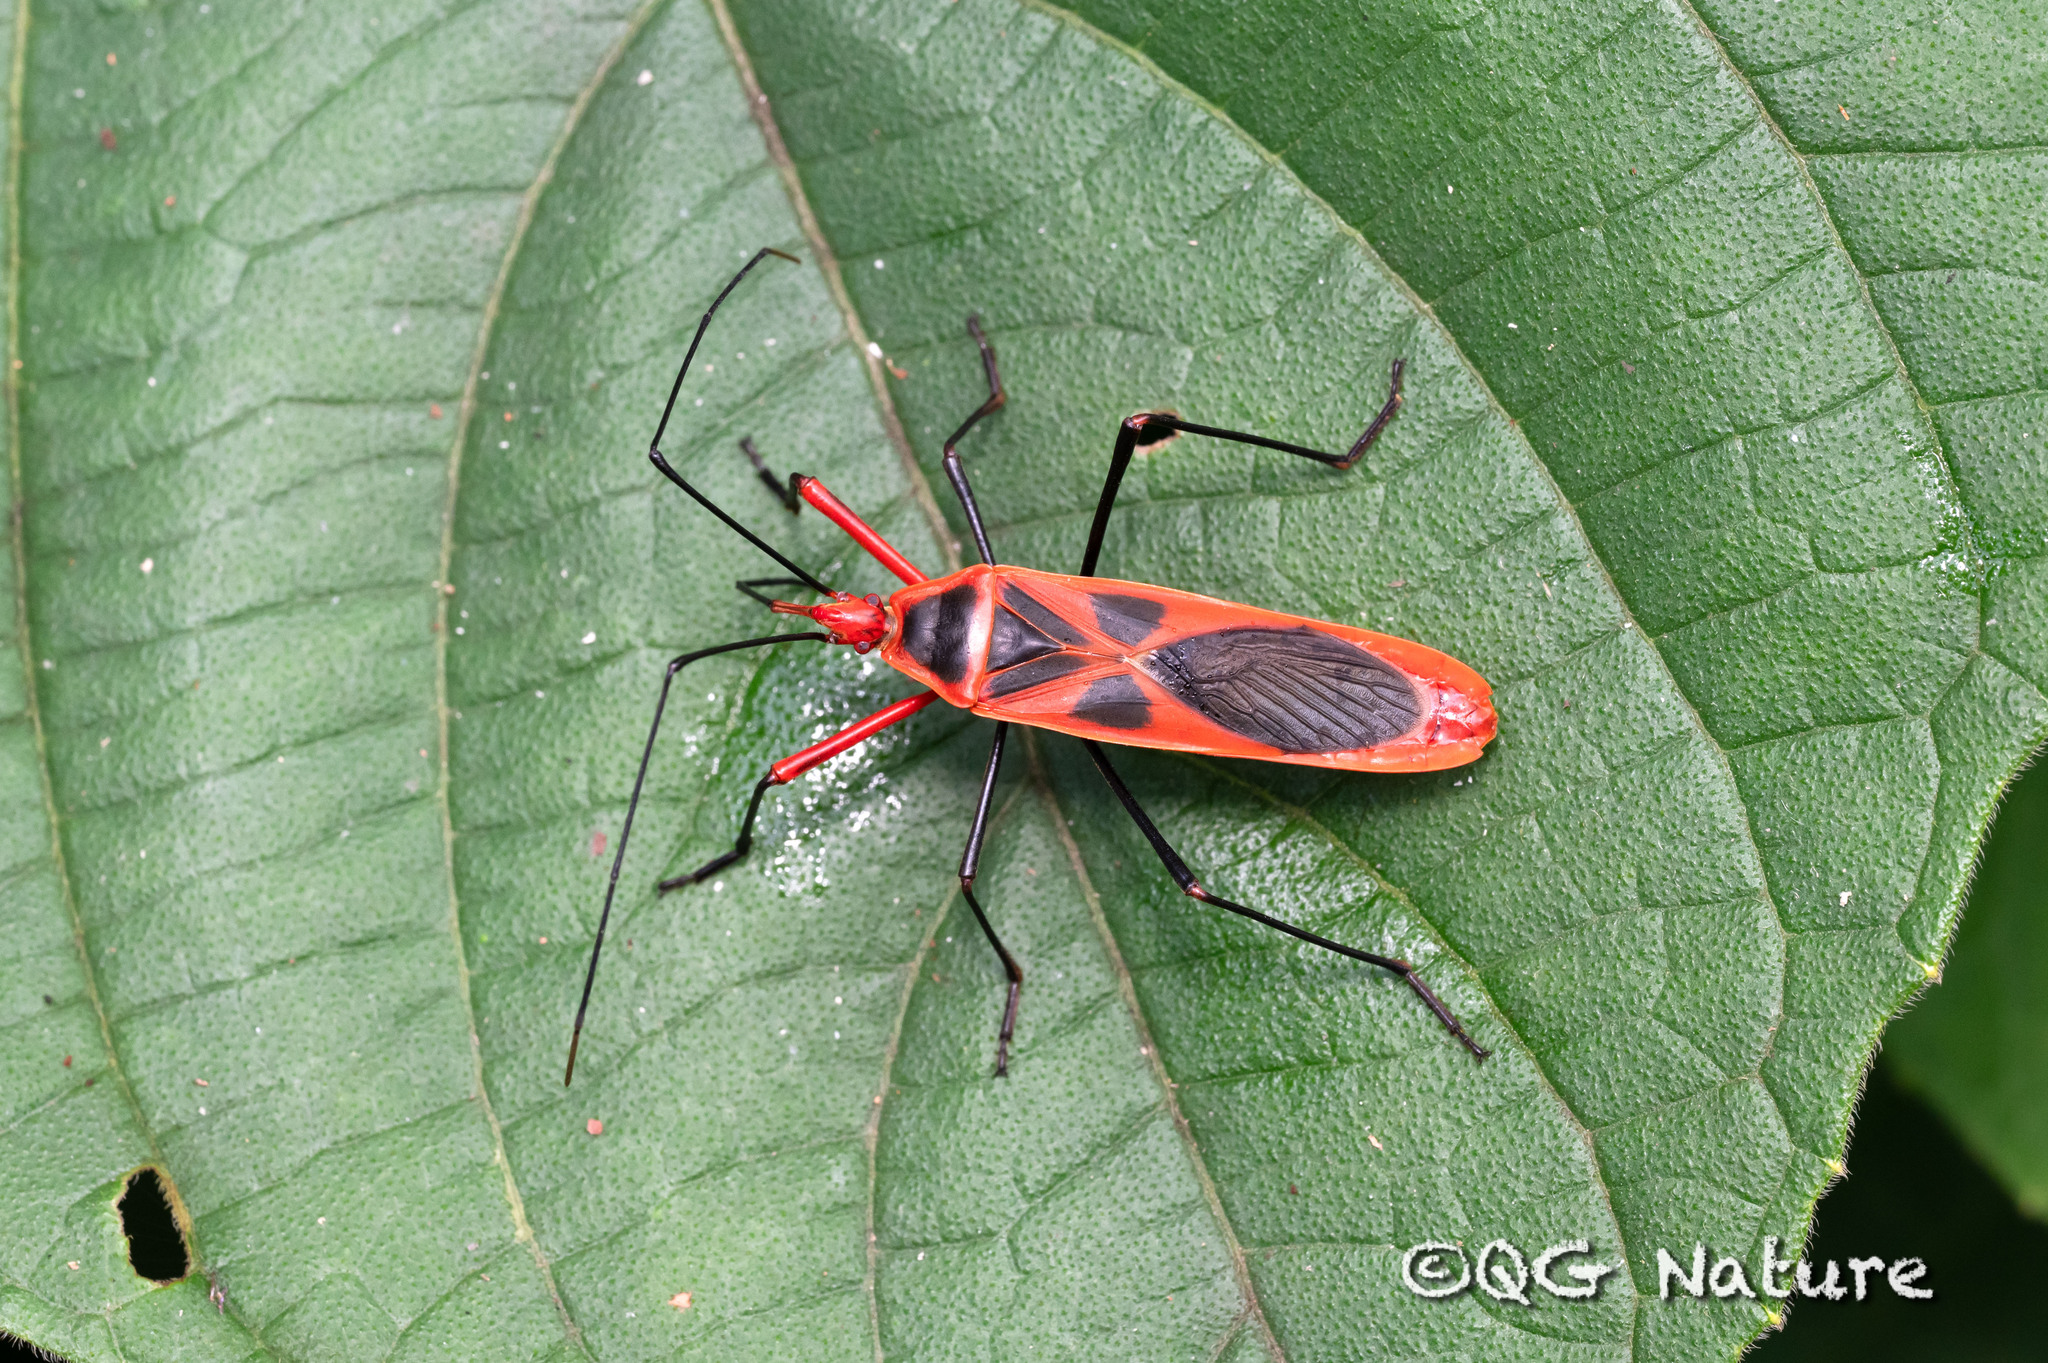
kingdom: Animalia
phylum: Arthropoda
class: Insecta
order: Hemiptera
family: Largidae
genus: Macrocheraia
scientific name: Macrocheraia grandis
